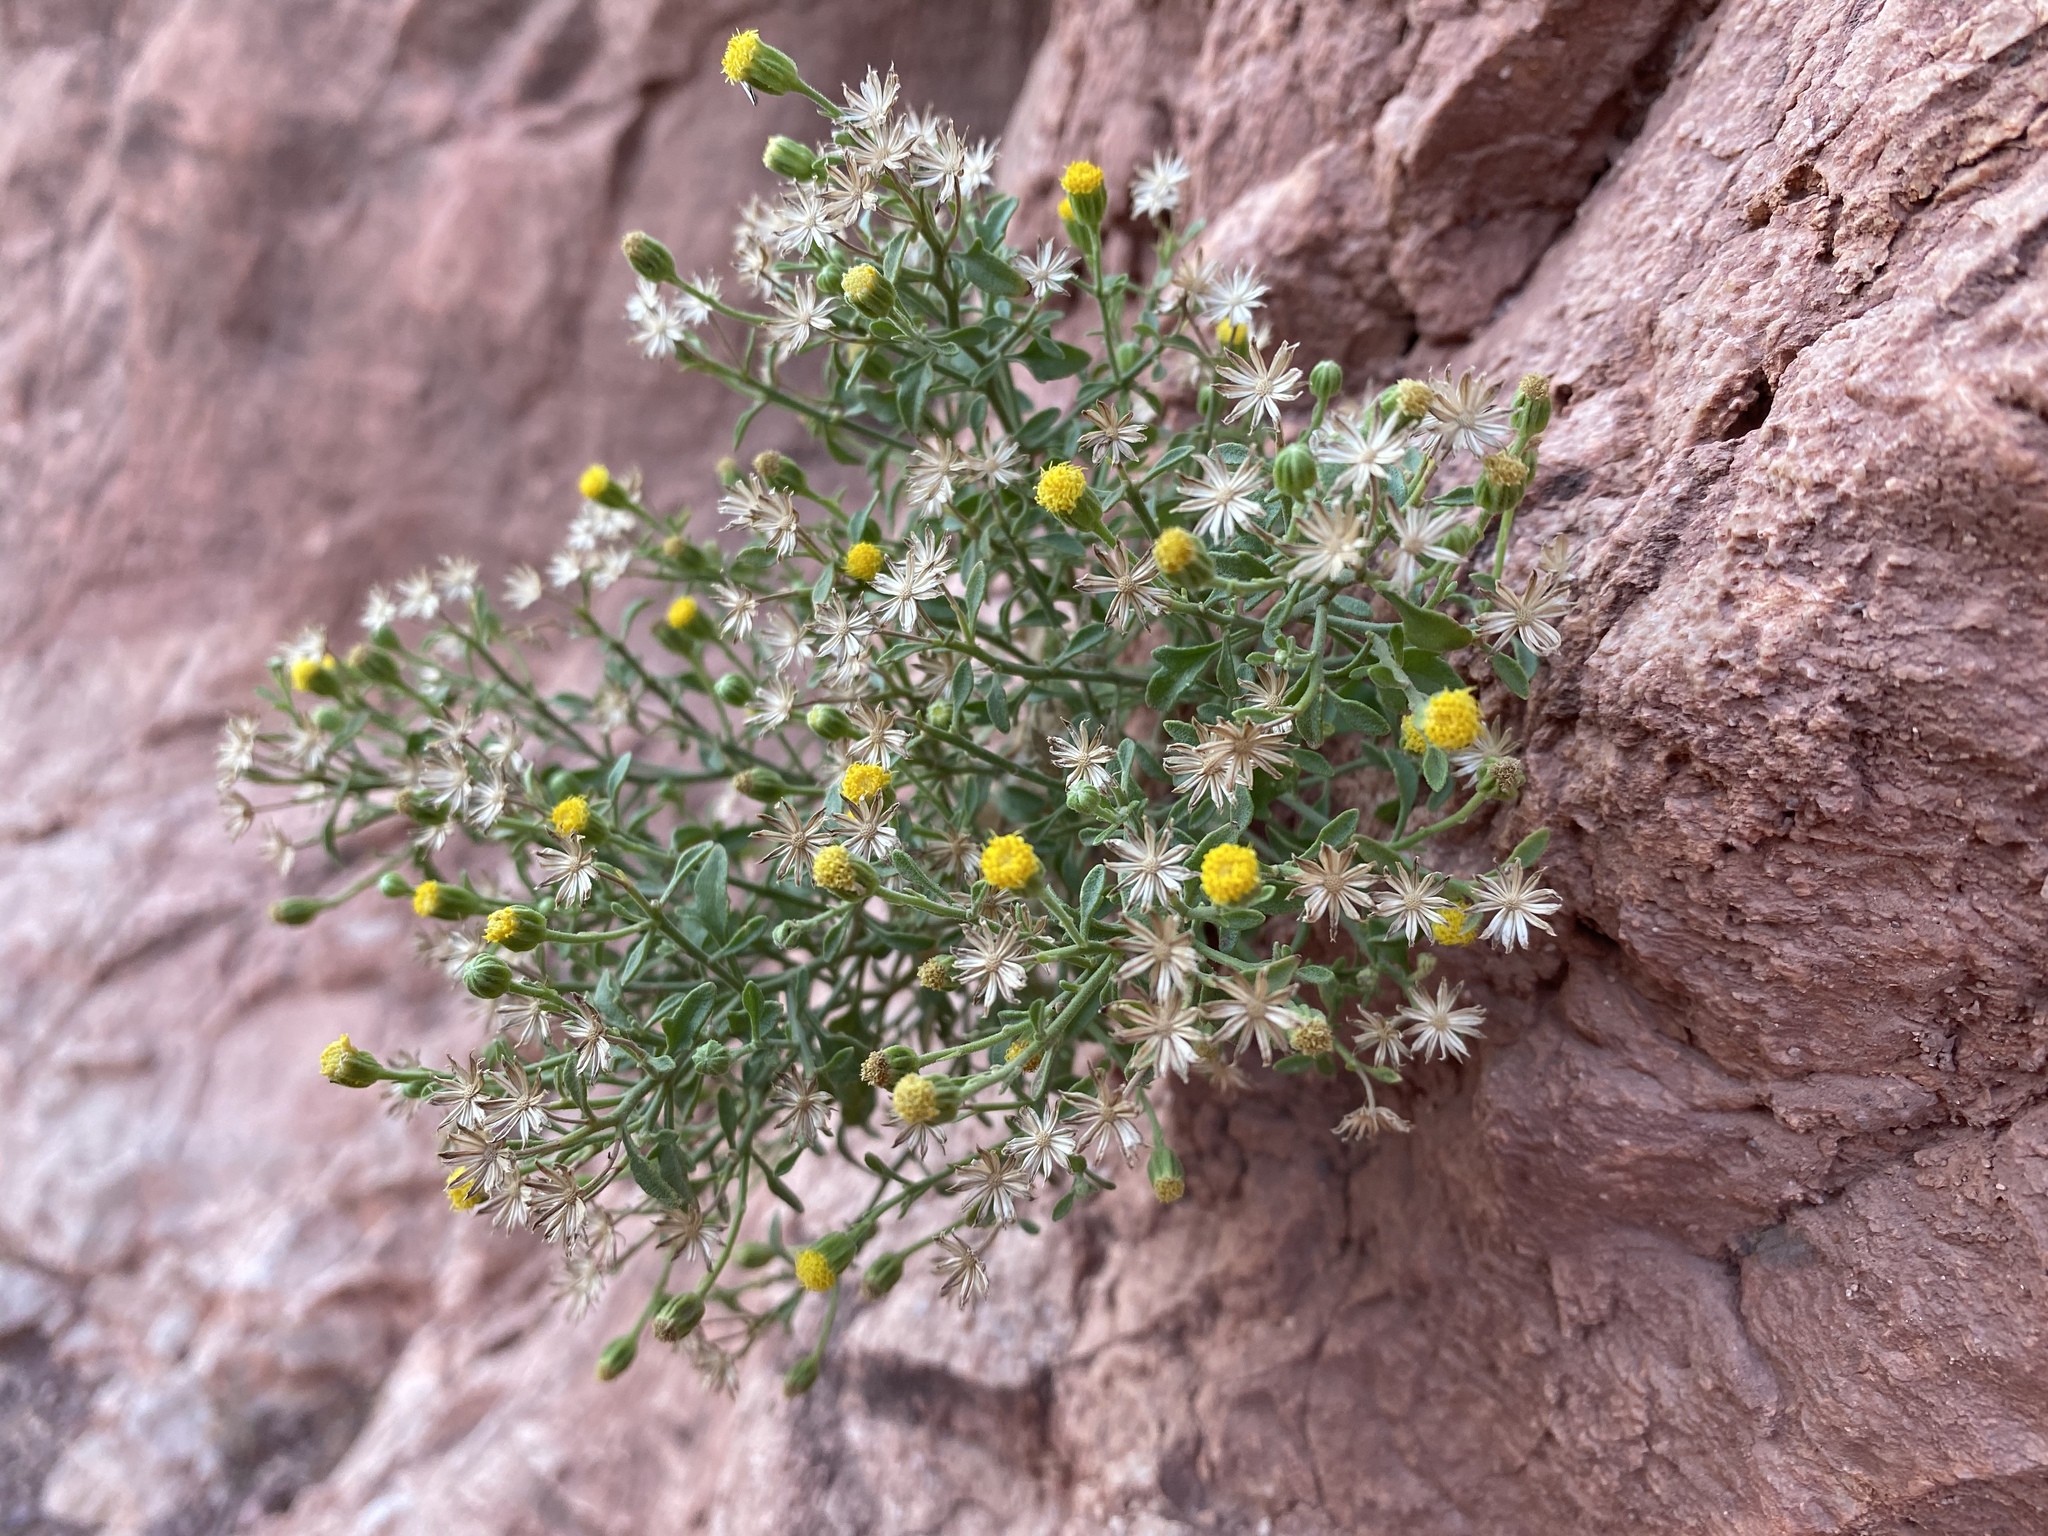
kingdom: Plantae
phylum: Tracheophyta
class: Magnoliopsida
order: Asterales
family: Asteraceae
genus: Laphamia
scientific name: Laphamia congesta
